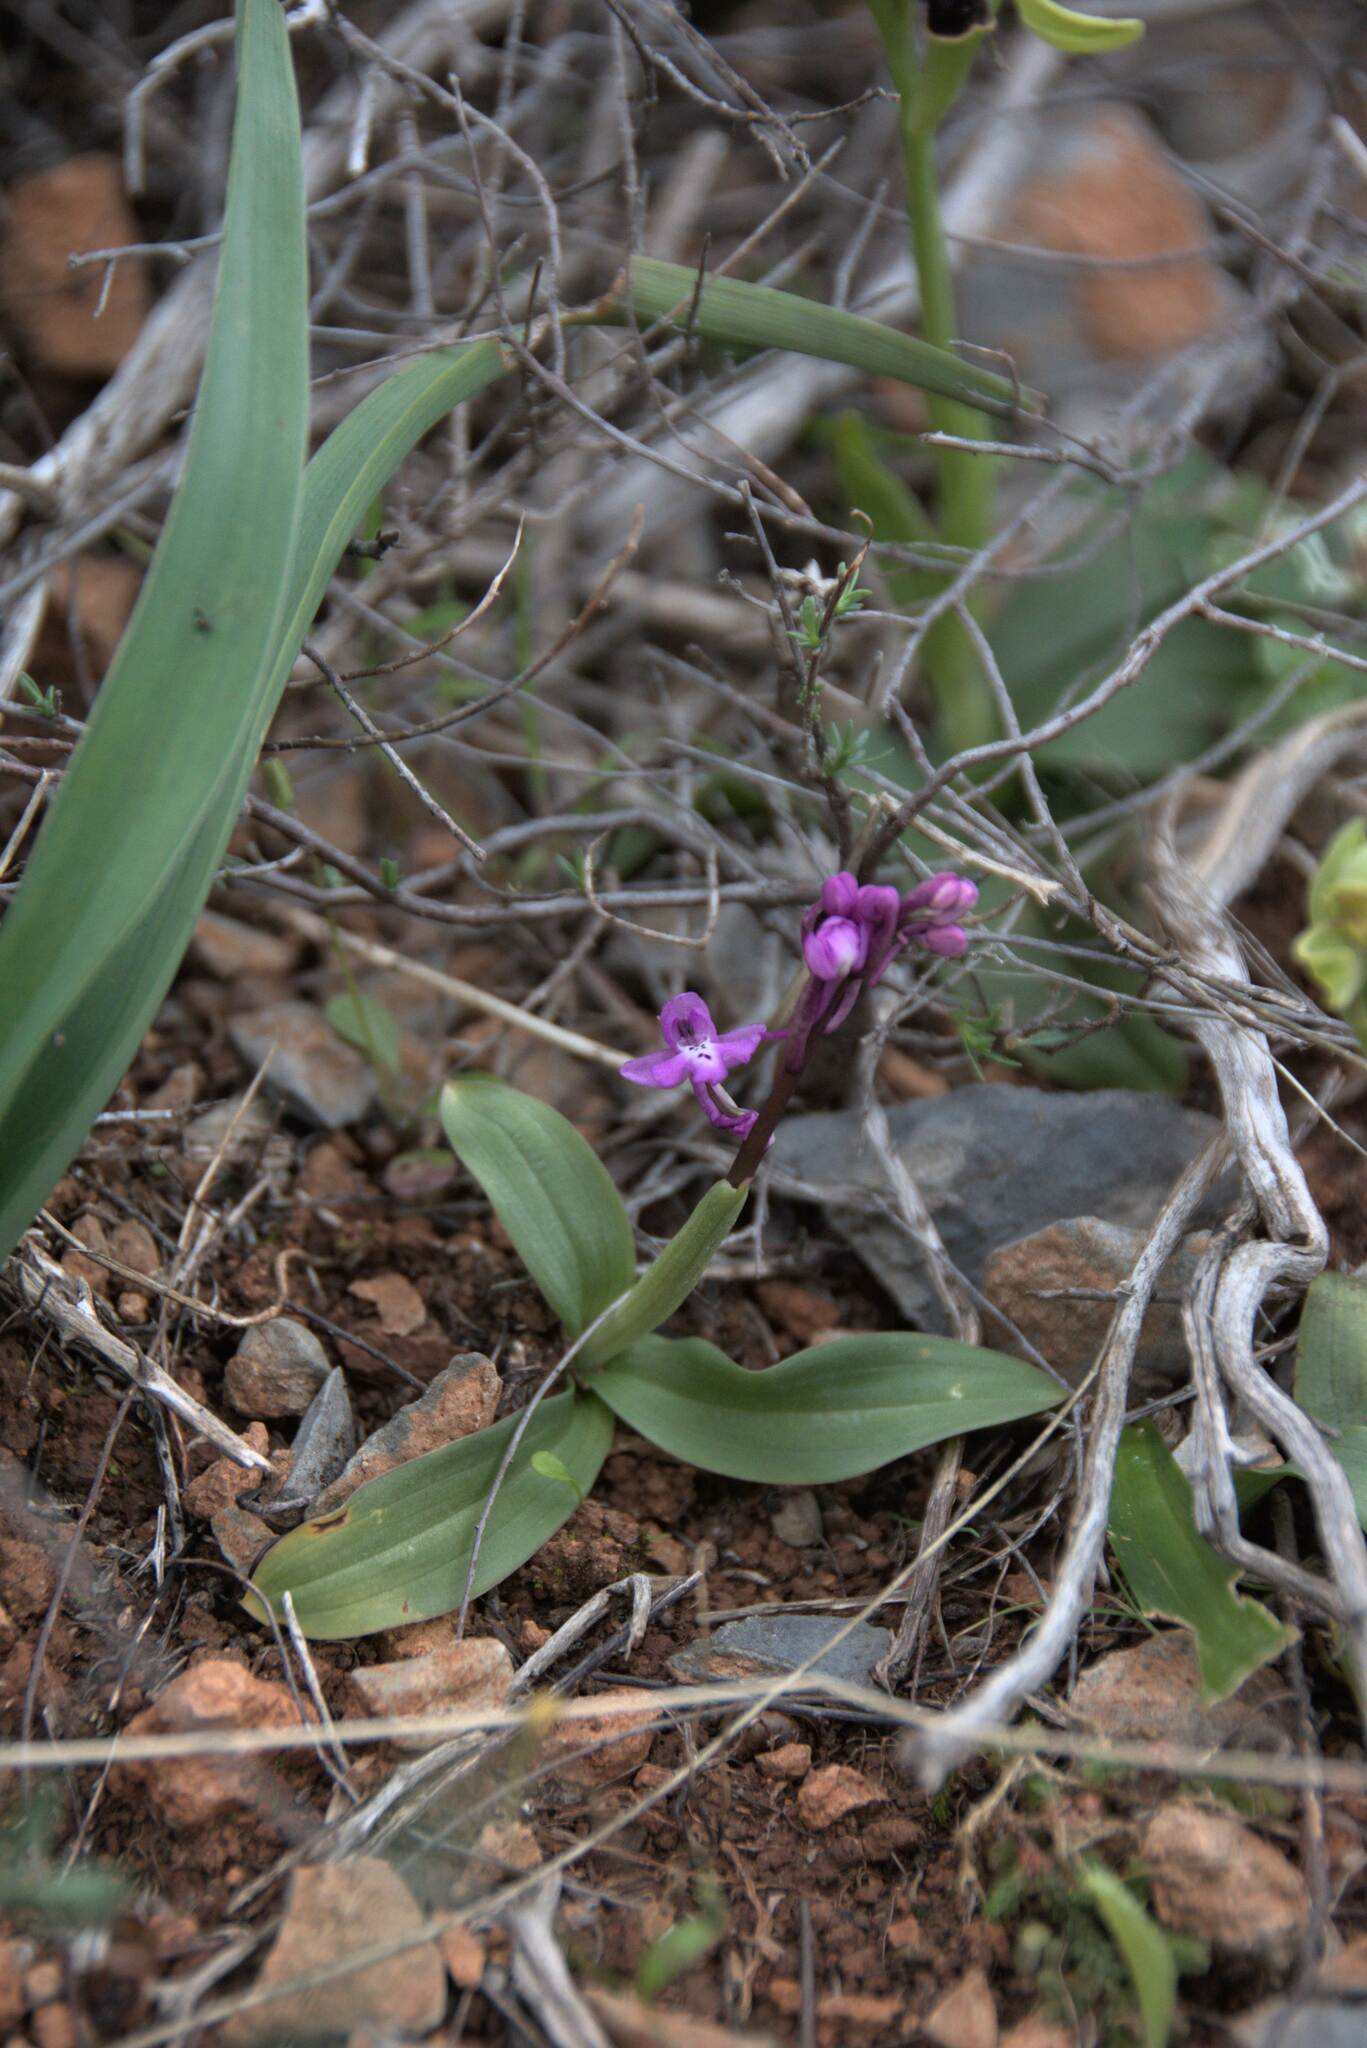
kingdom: Plantae
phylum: Tracheophyta
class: Liliopsida
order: Asparagales
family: Orchidaceae
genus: Orchis
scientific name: Orchis quadripunctata
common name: Four-spotted orchid
